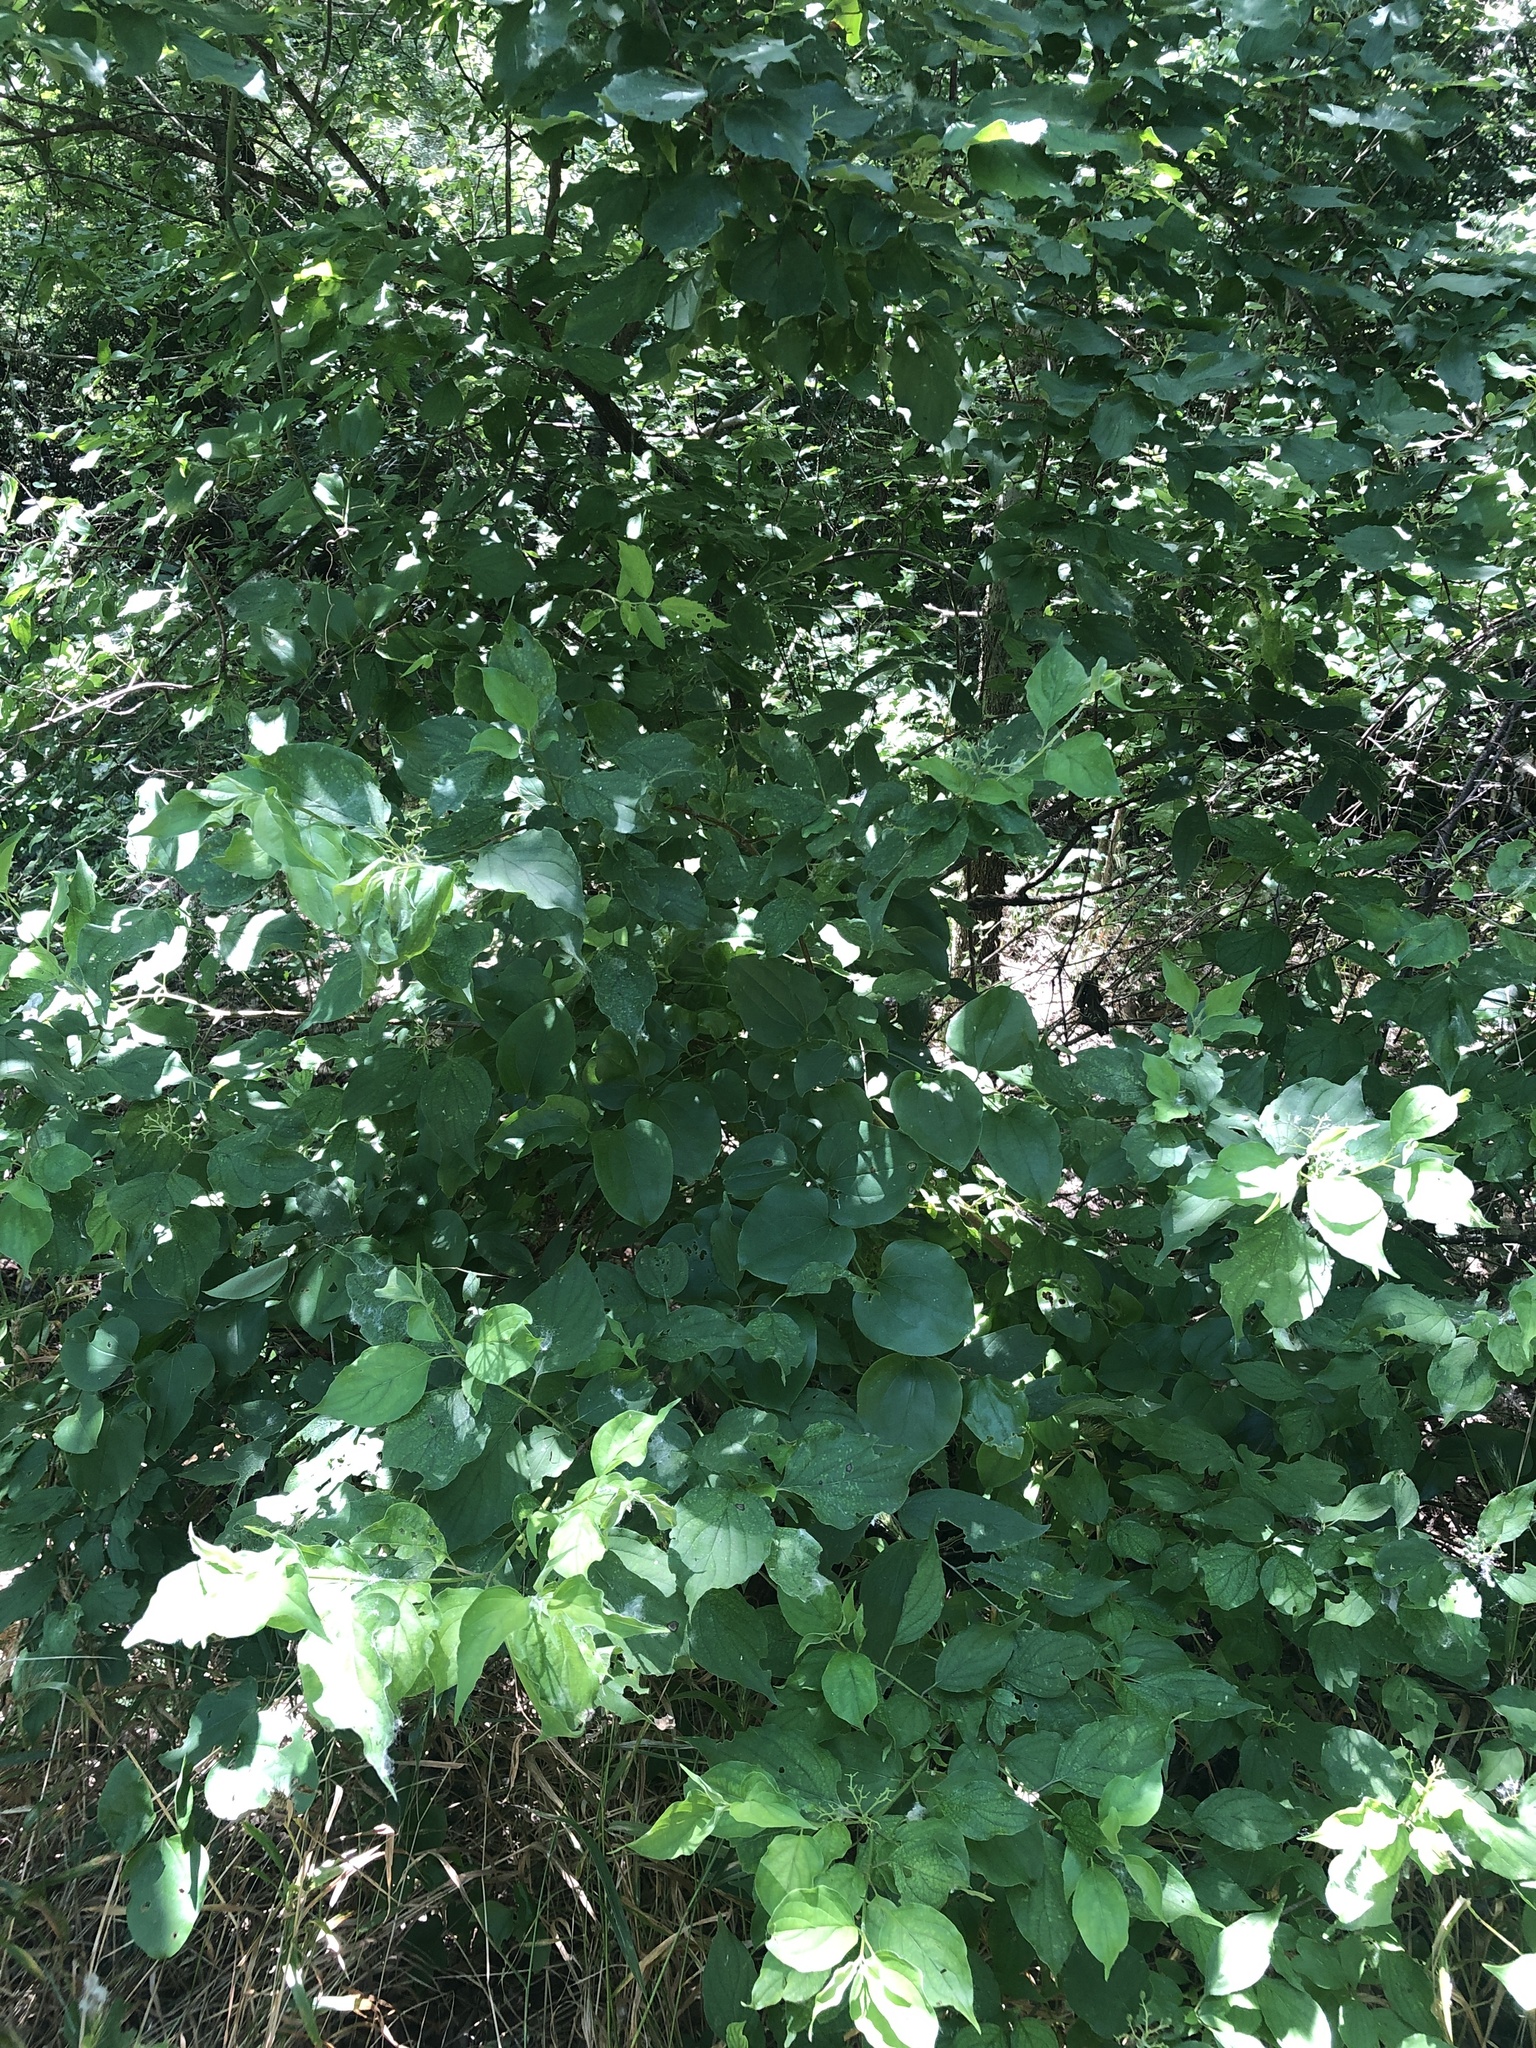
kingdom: Plantae
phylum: Tracheophyta
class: Magnoliopsida
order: Cornales
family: Cornaceae
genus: Cornus
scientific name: Cornus drummondii
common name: Rough-leaf dogwood
